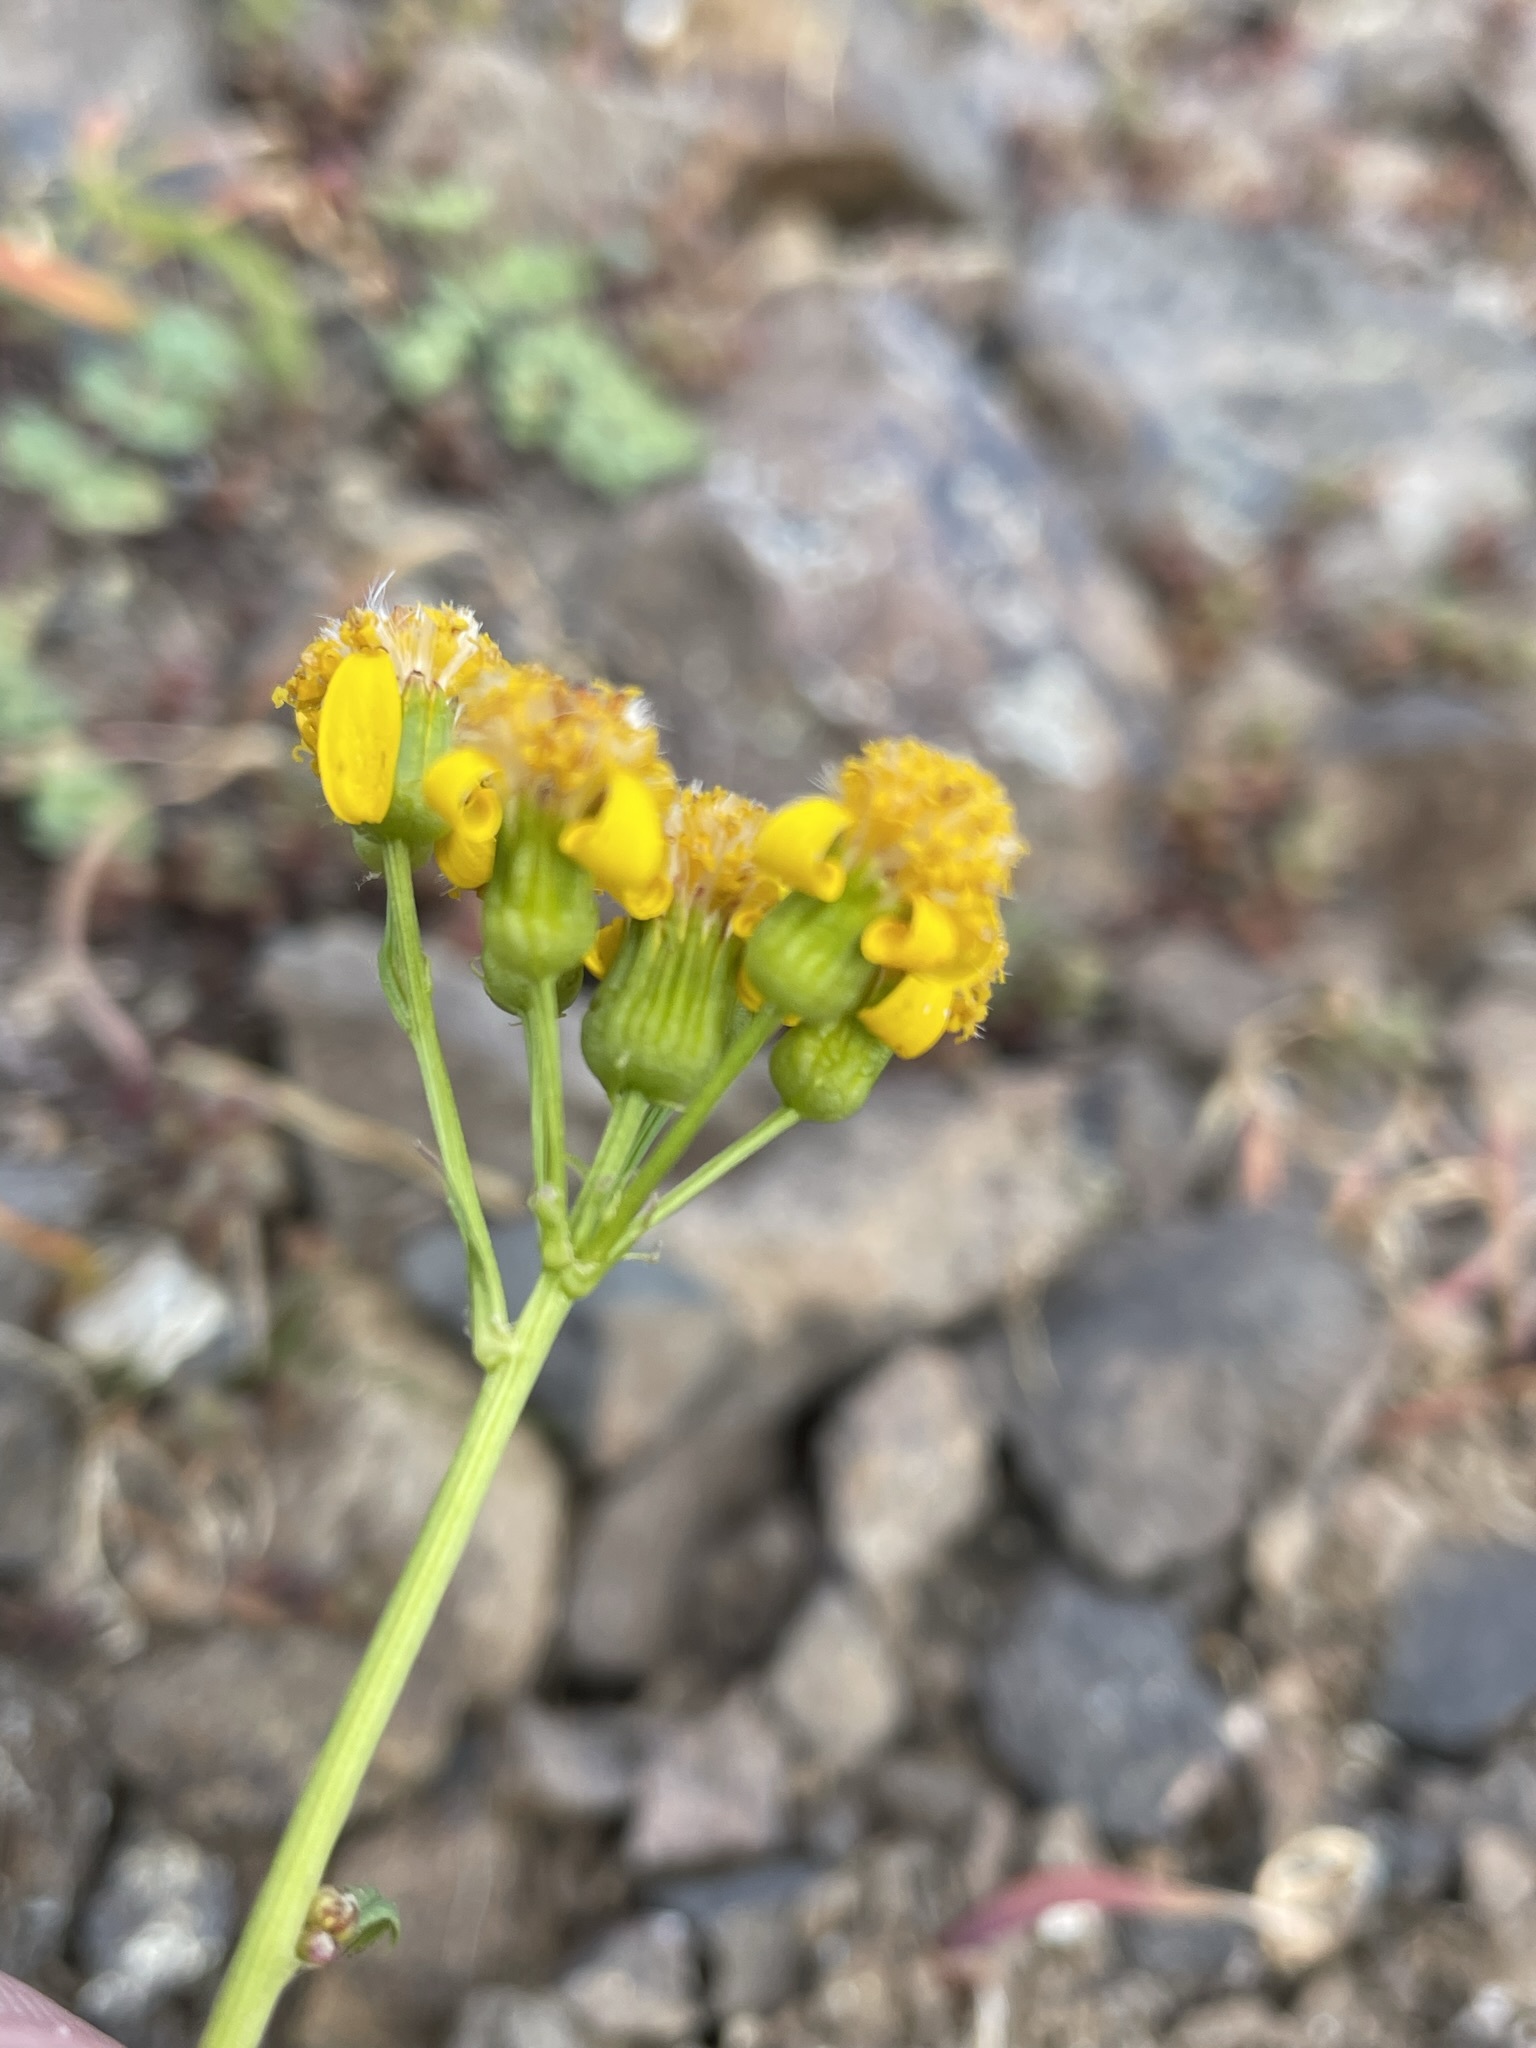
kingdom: Plantae
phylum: Tracheophyta
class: Magnoliopsida
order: Asterales
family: Asteraceae
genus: Packera
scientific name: Packera flettii
